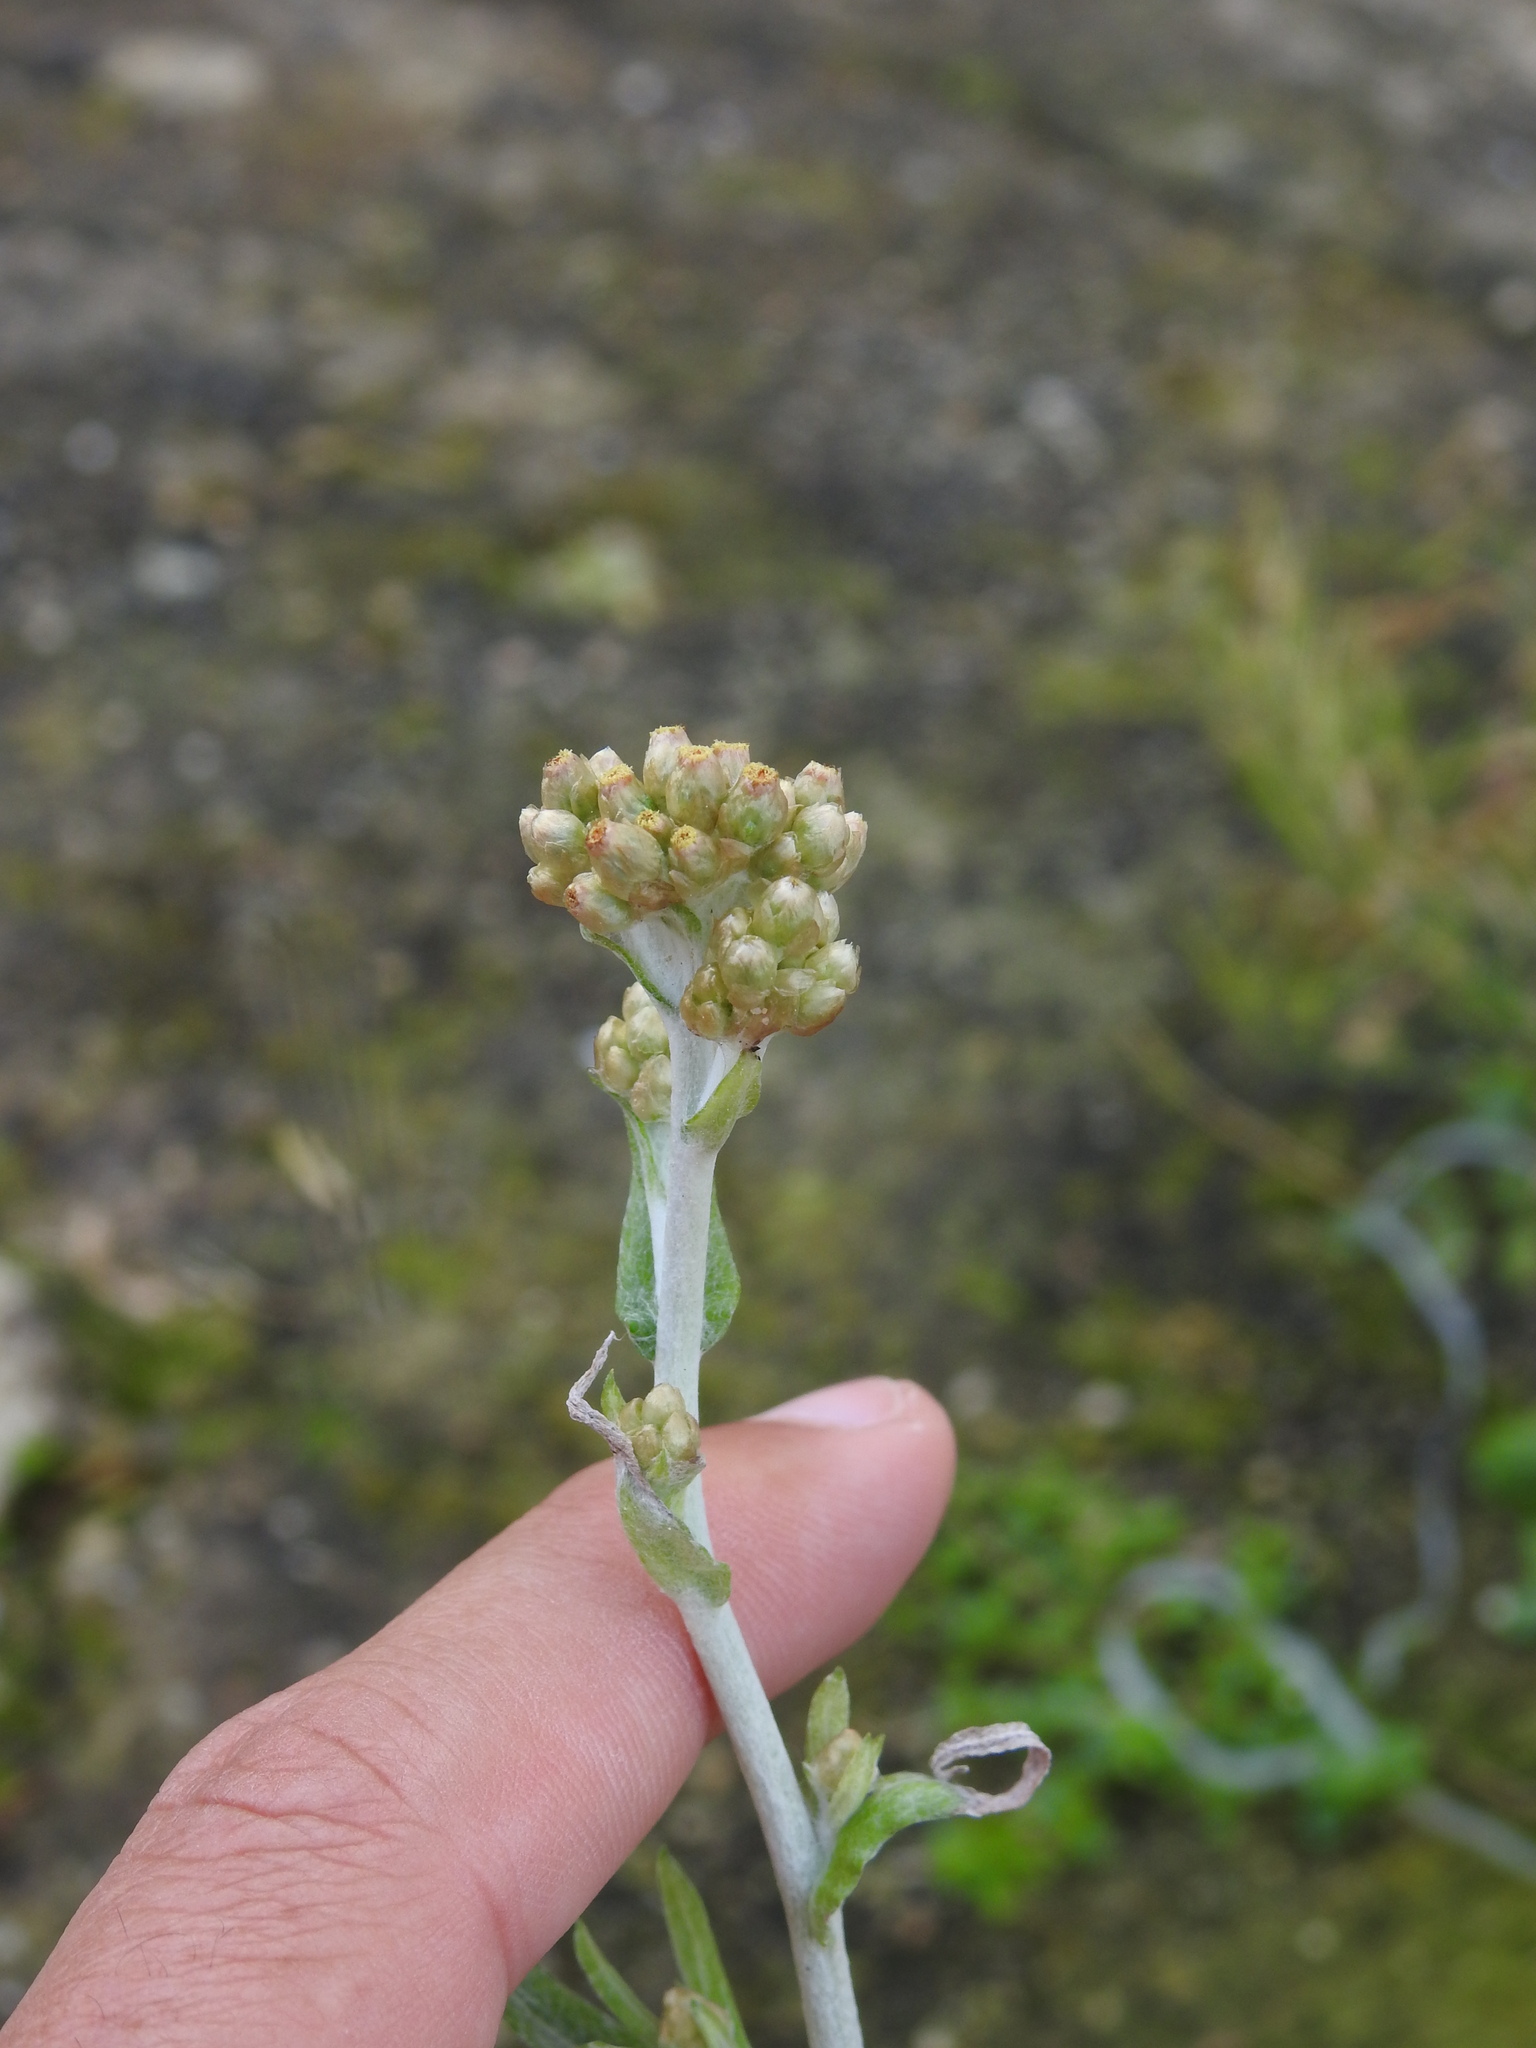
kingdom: Plantae
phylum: Tracheophyta
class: Magnoliopsida
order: Asterales
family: Asteraceae
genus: Helichrysum
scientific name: Helichrysum luteoalbum
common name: Daisy
